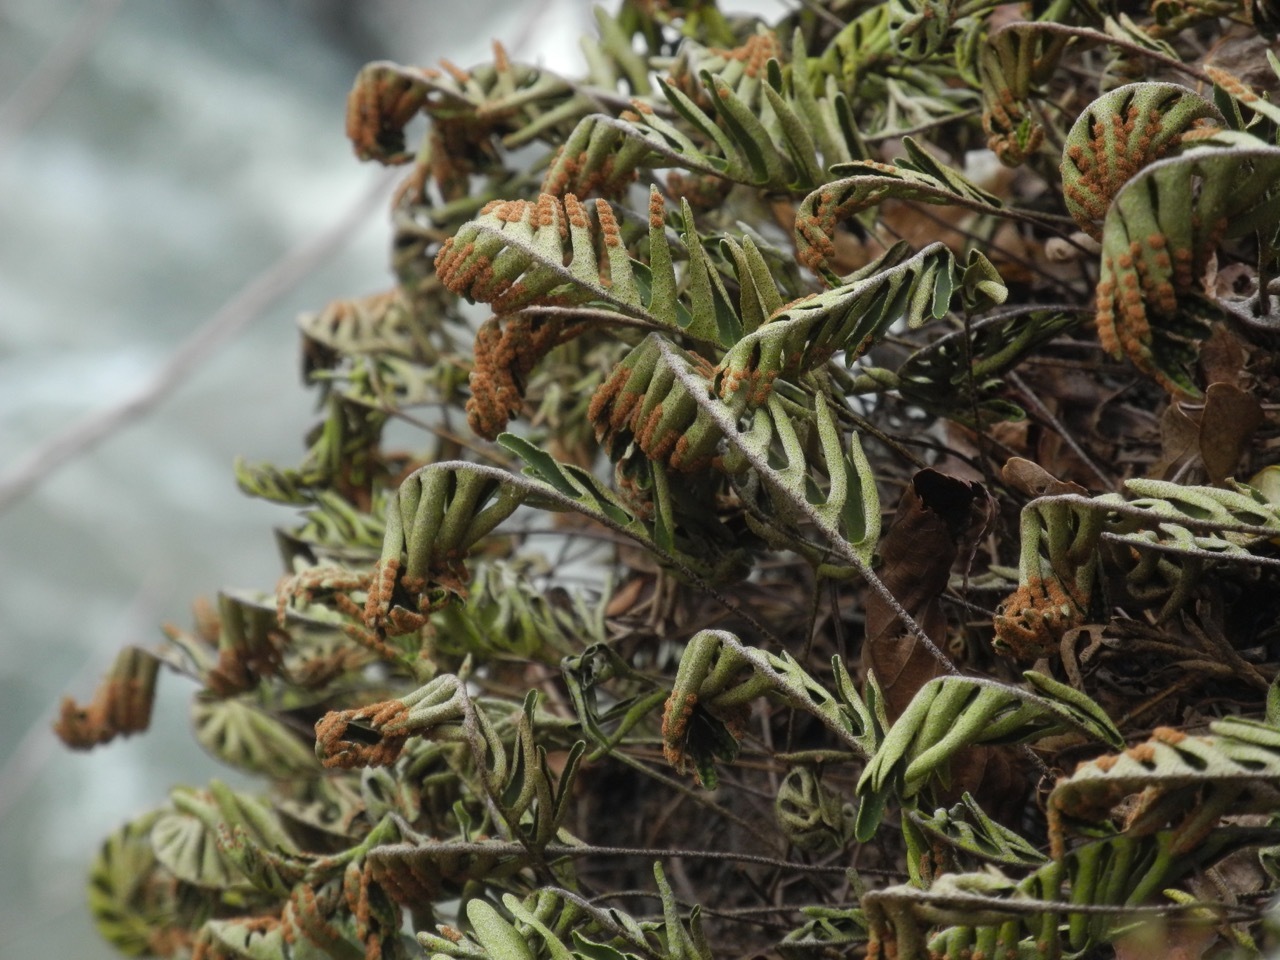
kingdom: Plantae
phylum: Tracheophyta
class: Polypodiopsida
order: Polypodiales
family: Polypodiaceae
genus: Pleopeltis
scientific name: Pleopeltis michauxiana
